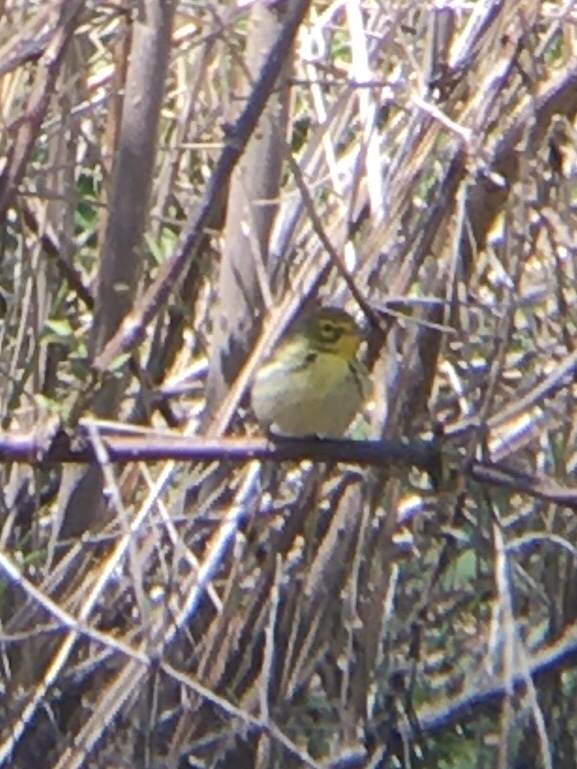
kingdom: Animalia
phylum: Chordata
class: Aves
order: Passeriformes
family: Parulidae
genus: Setophaga
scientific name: Setophaga discolor
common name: Prairie warbler
